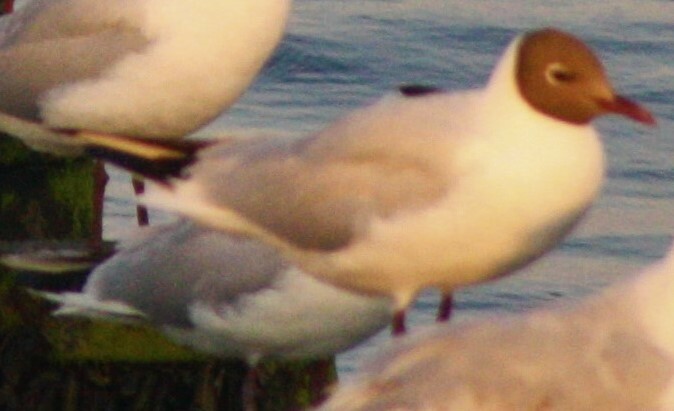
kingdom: Animalia
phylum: Chordata
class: Aves
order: Charadriiformes
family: Laridae
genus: Chroicocephalus
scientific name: Chroicocephalus ridibundus
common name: Black-headed gull
